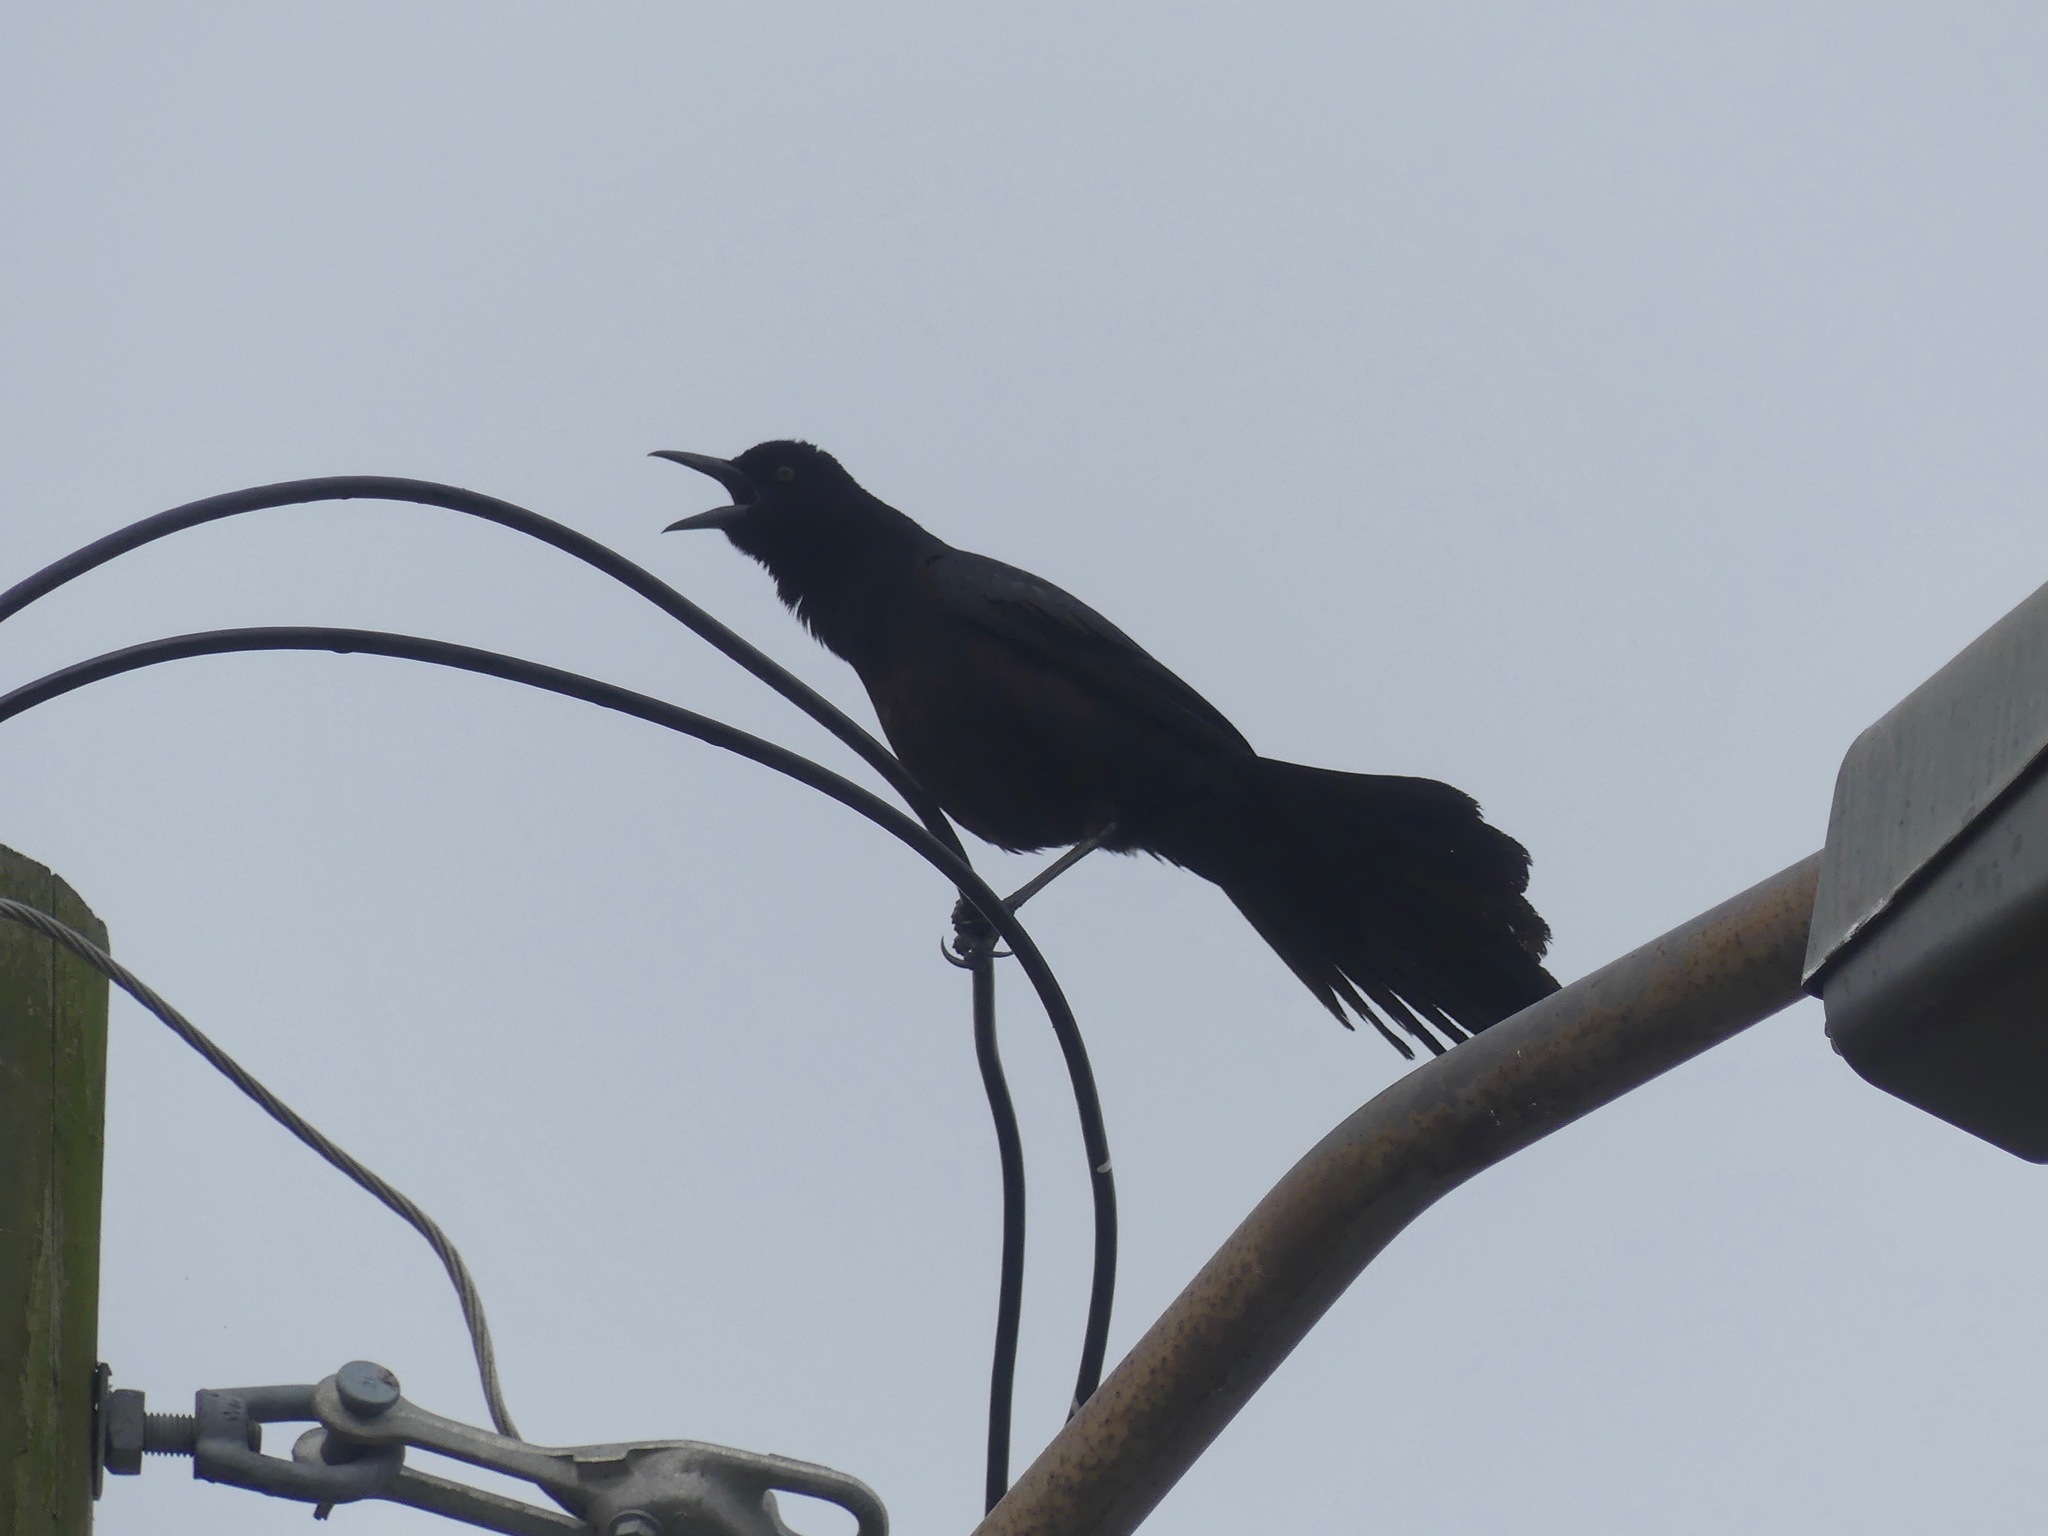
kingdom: Animalia
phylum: Chordata
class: Aves
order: Passeriformes
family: Icteridae
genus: Quiscalus
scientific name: Quiscalus major
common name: Boat-tailed grackle
